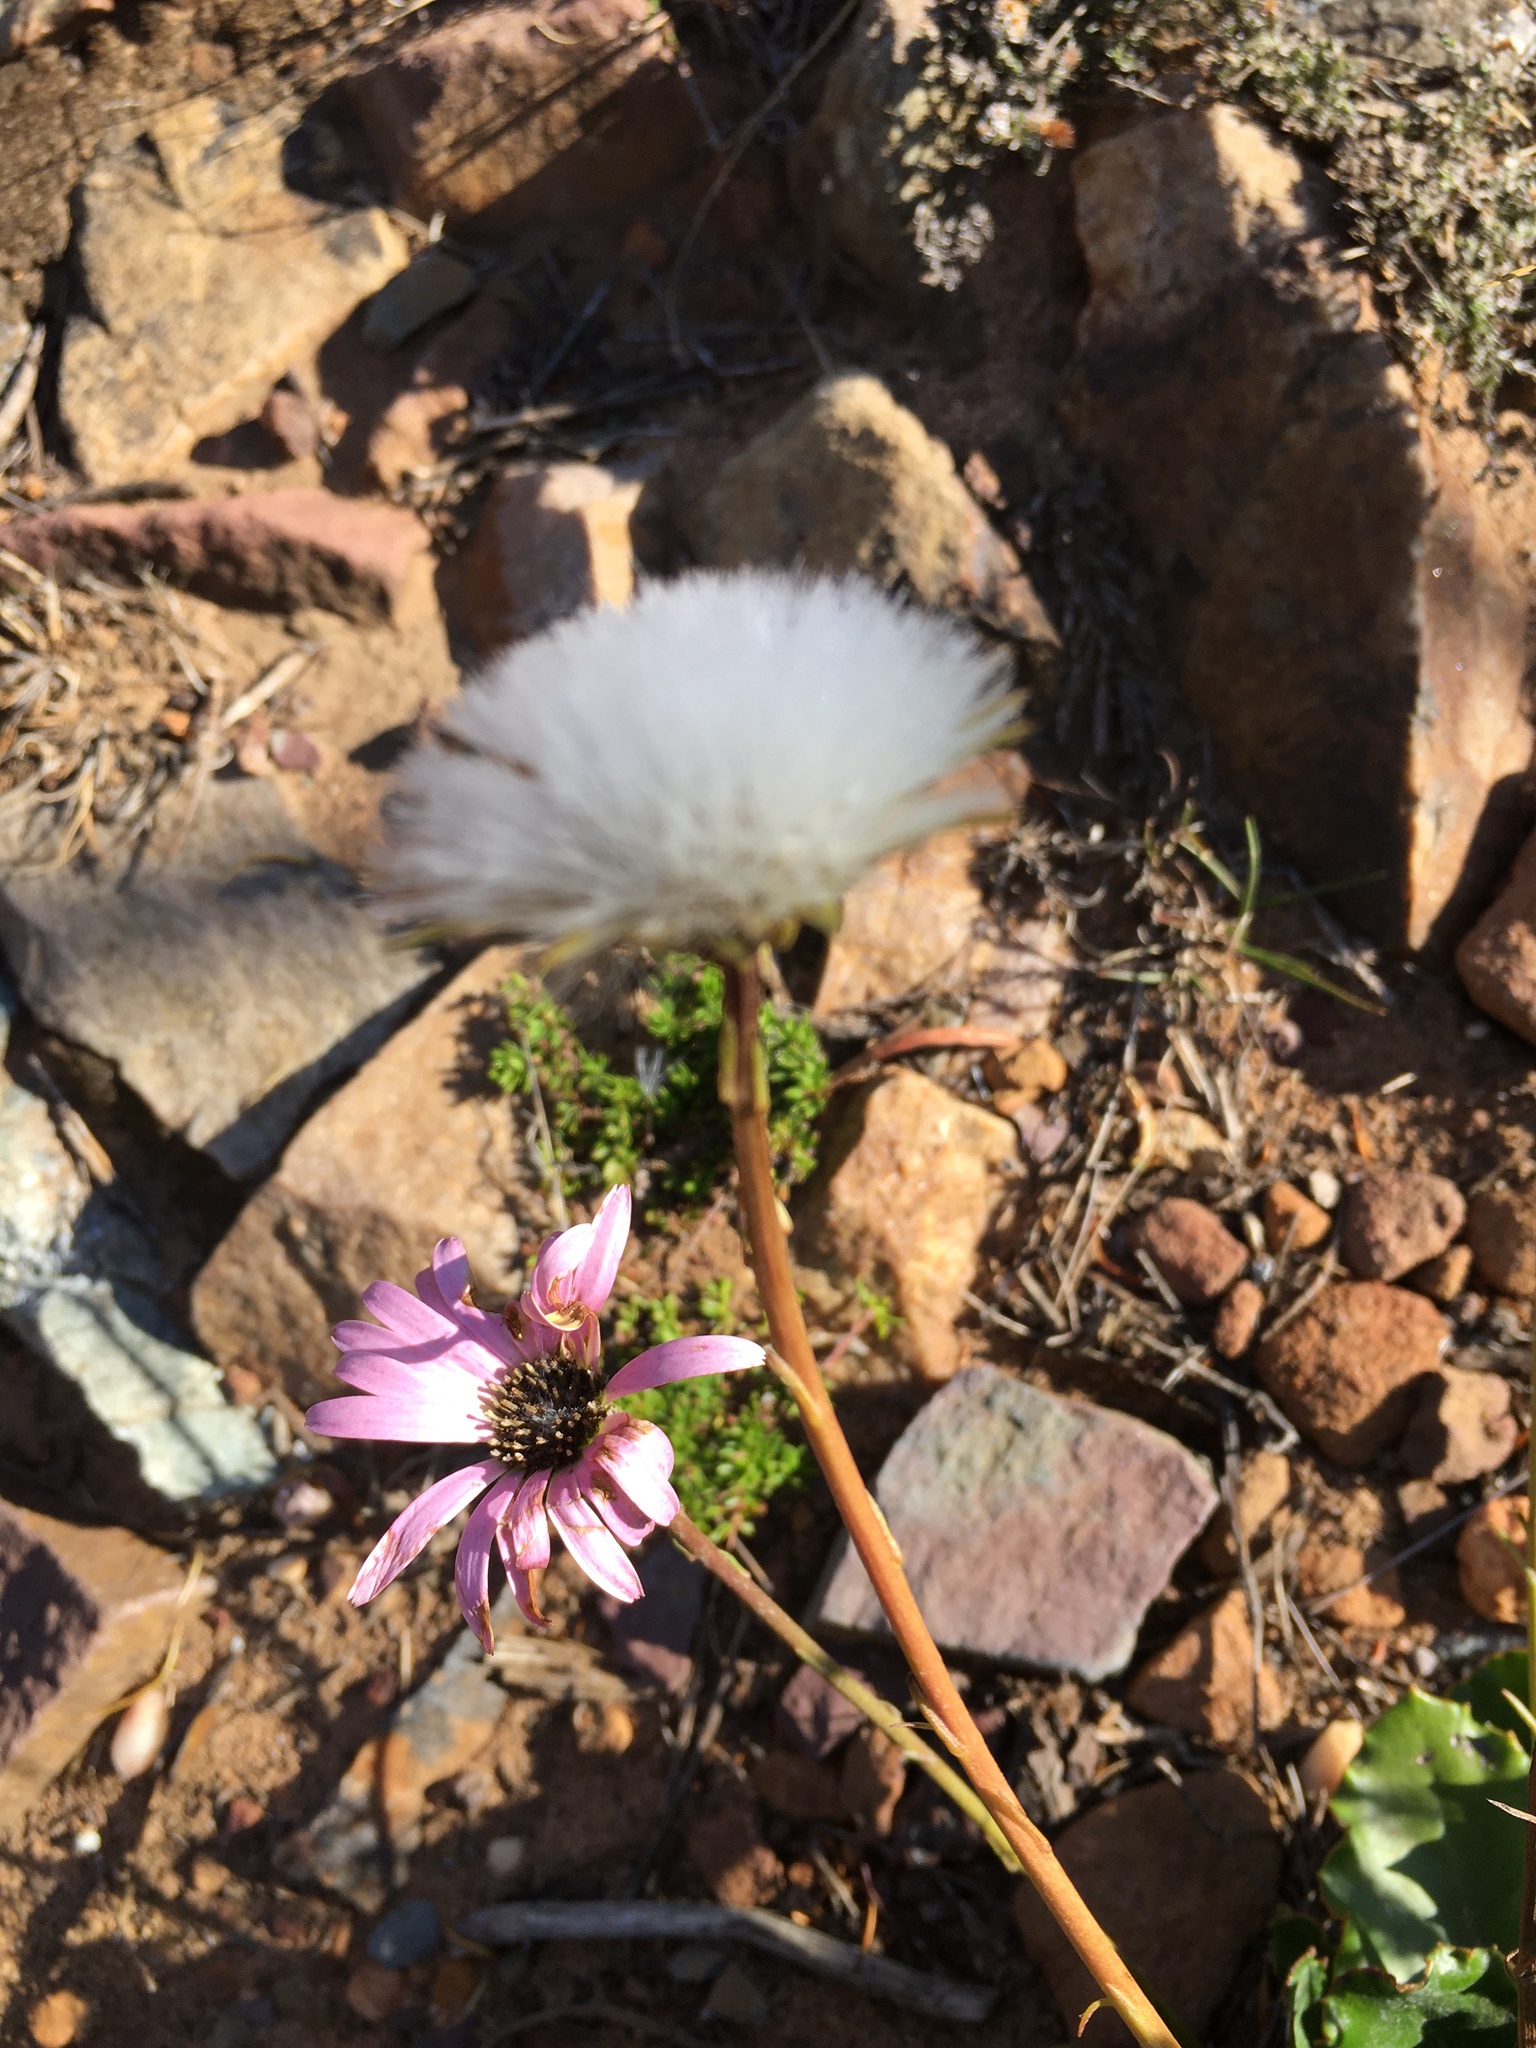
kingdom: Plantae
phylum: Tracheophyta
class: Magnoliopsida
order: Asterales
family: Asteraceae
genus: Gerbera
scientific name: Gerbera crocea
